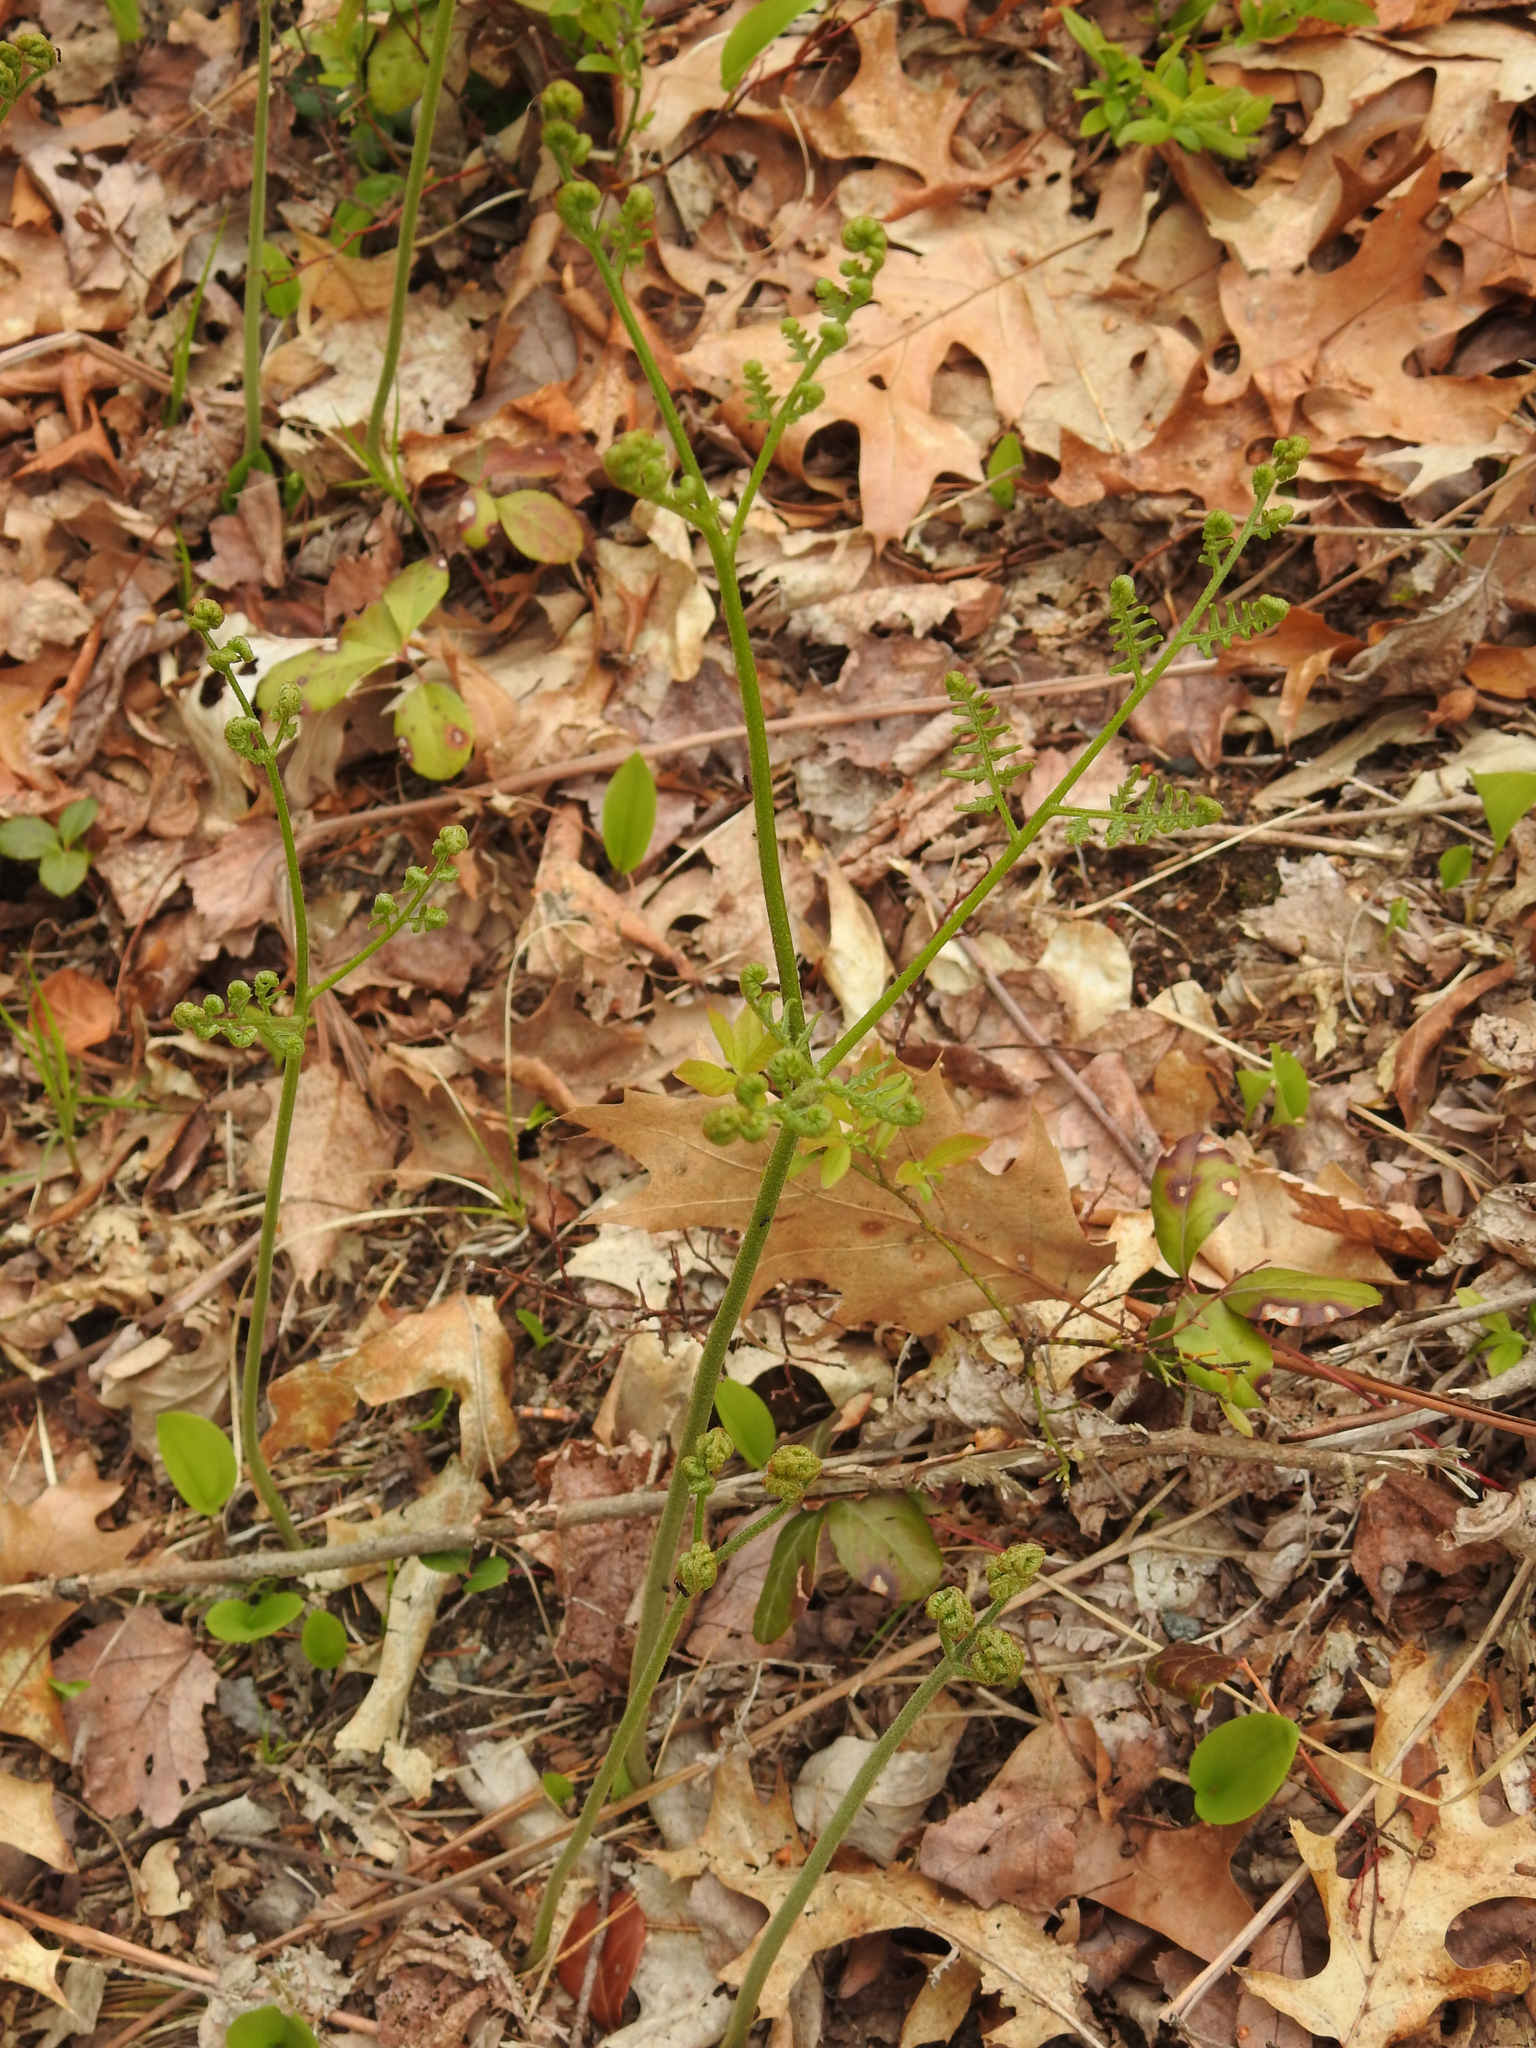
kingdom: Plantae
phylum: Tracheophyta
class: Polypodiopsida
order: Polypodiales
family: Dennstaedtiaceae
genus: Pteridium
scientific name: Pteridium aquilinum
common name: Bracken
